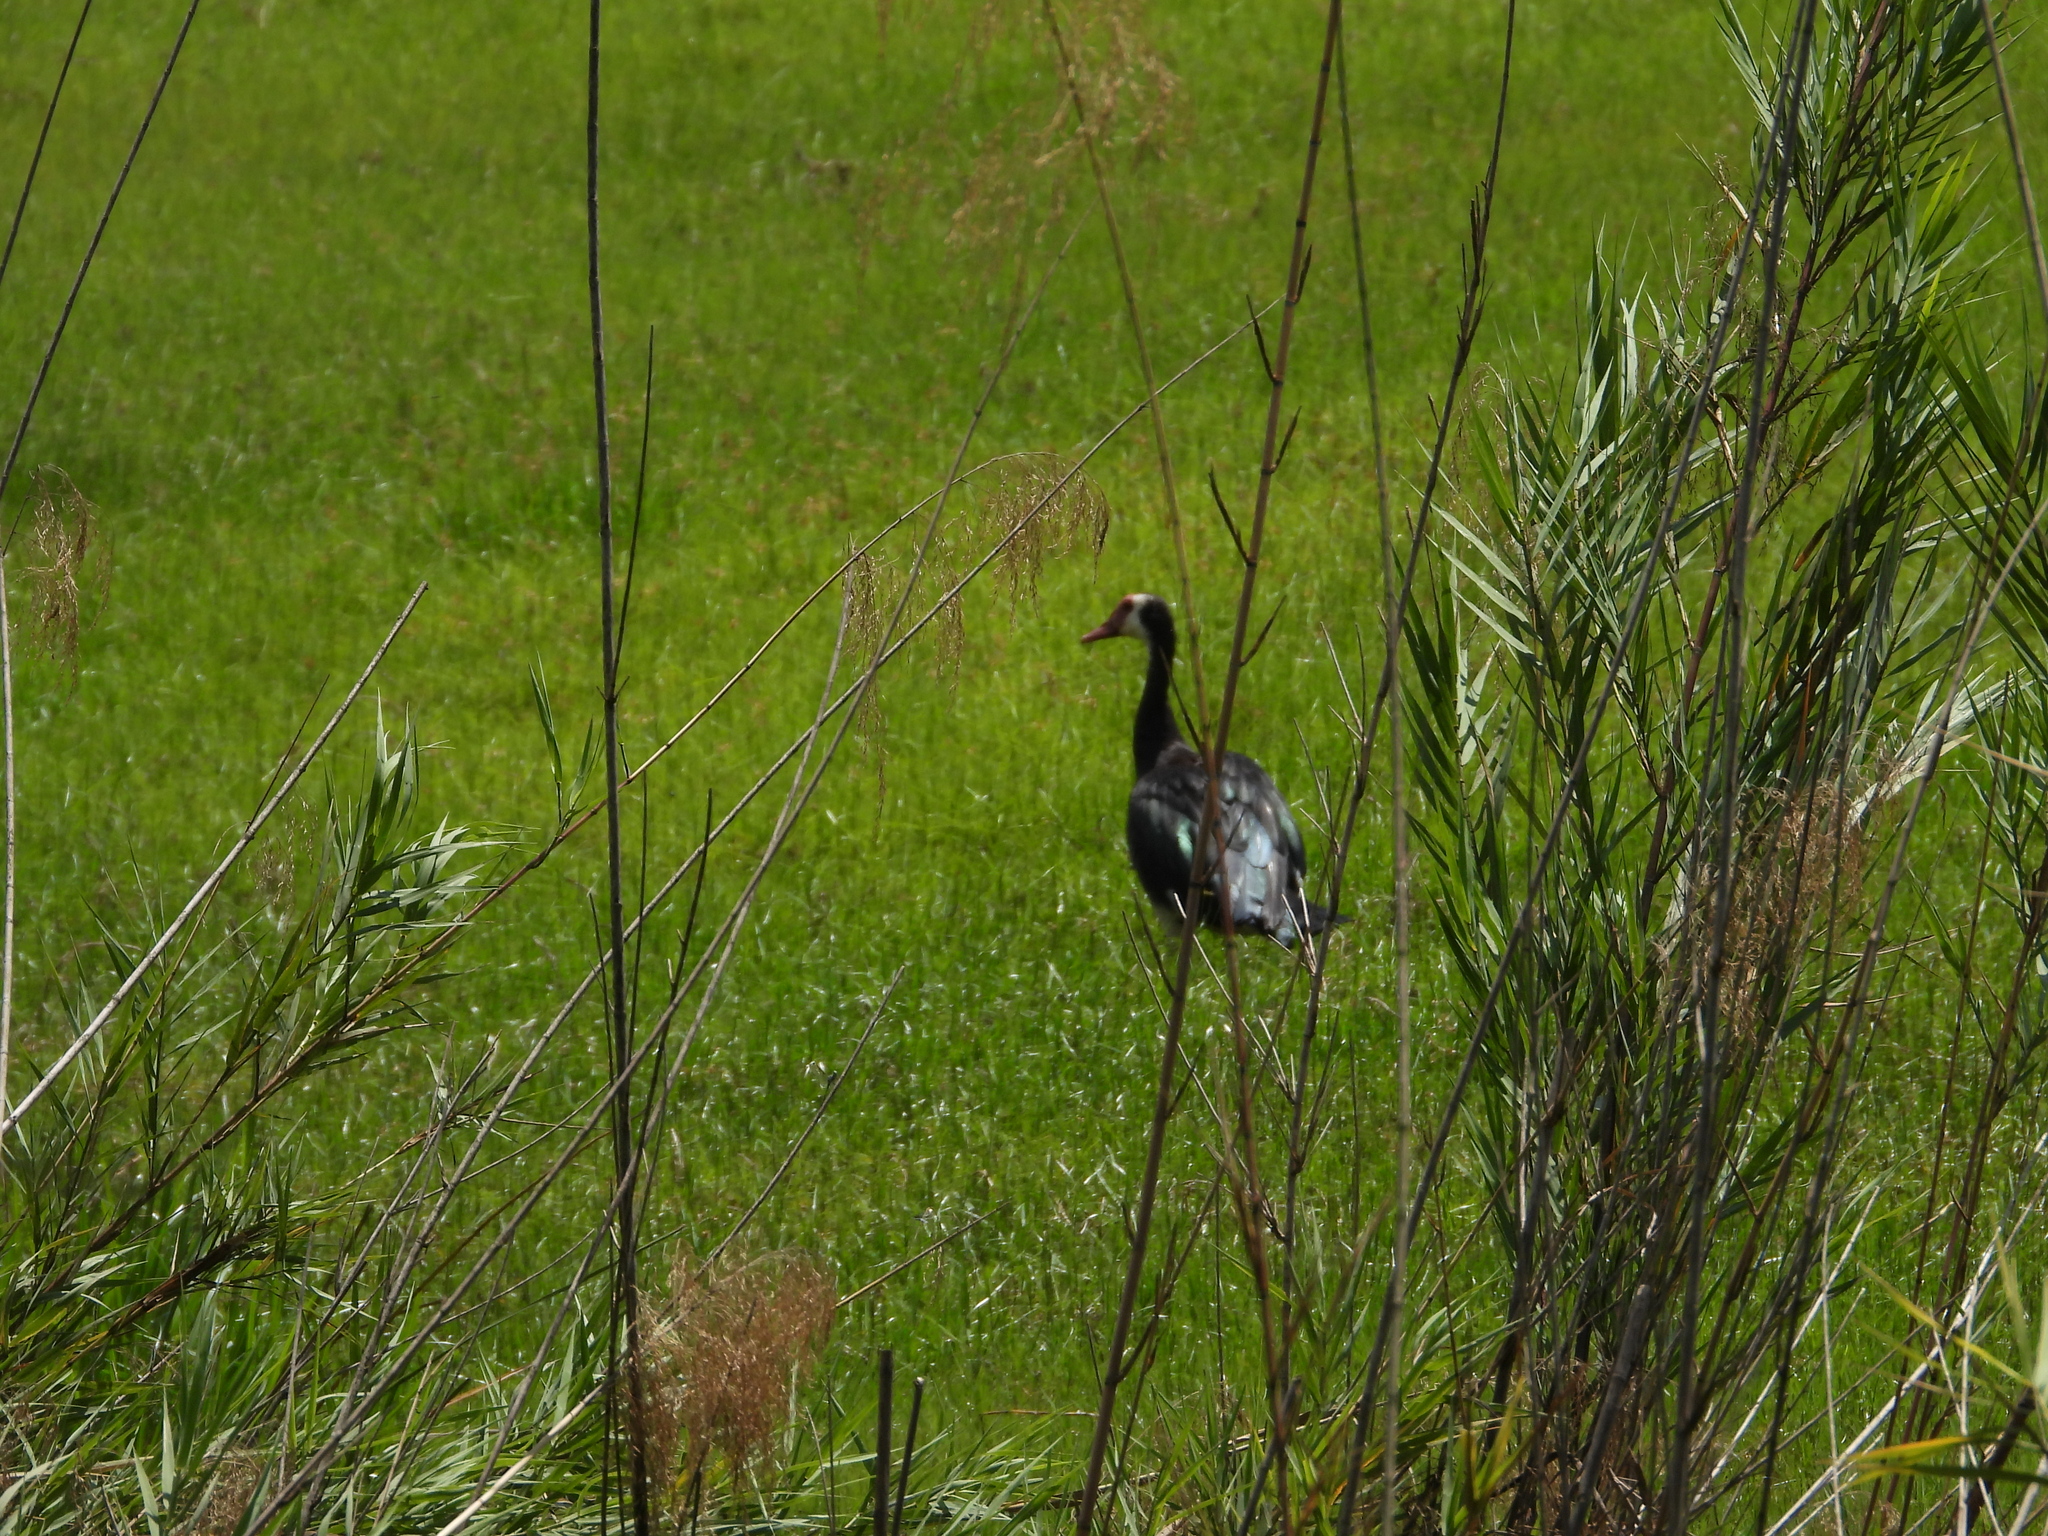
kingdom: Animalia
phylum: Chordata
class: Aves
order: Anseriformes
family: Anatidae
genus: Plectropterus
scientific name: Plectropterus gambensis
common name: Spur-winged goose
